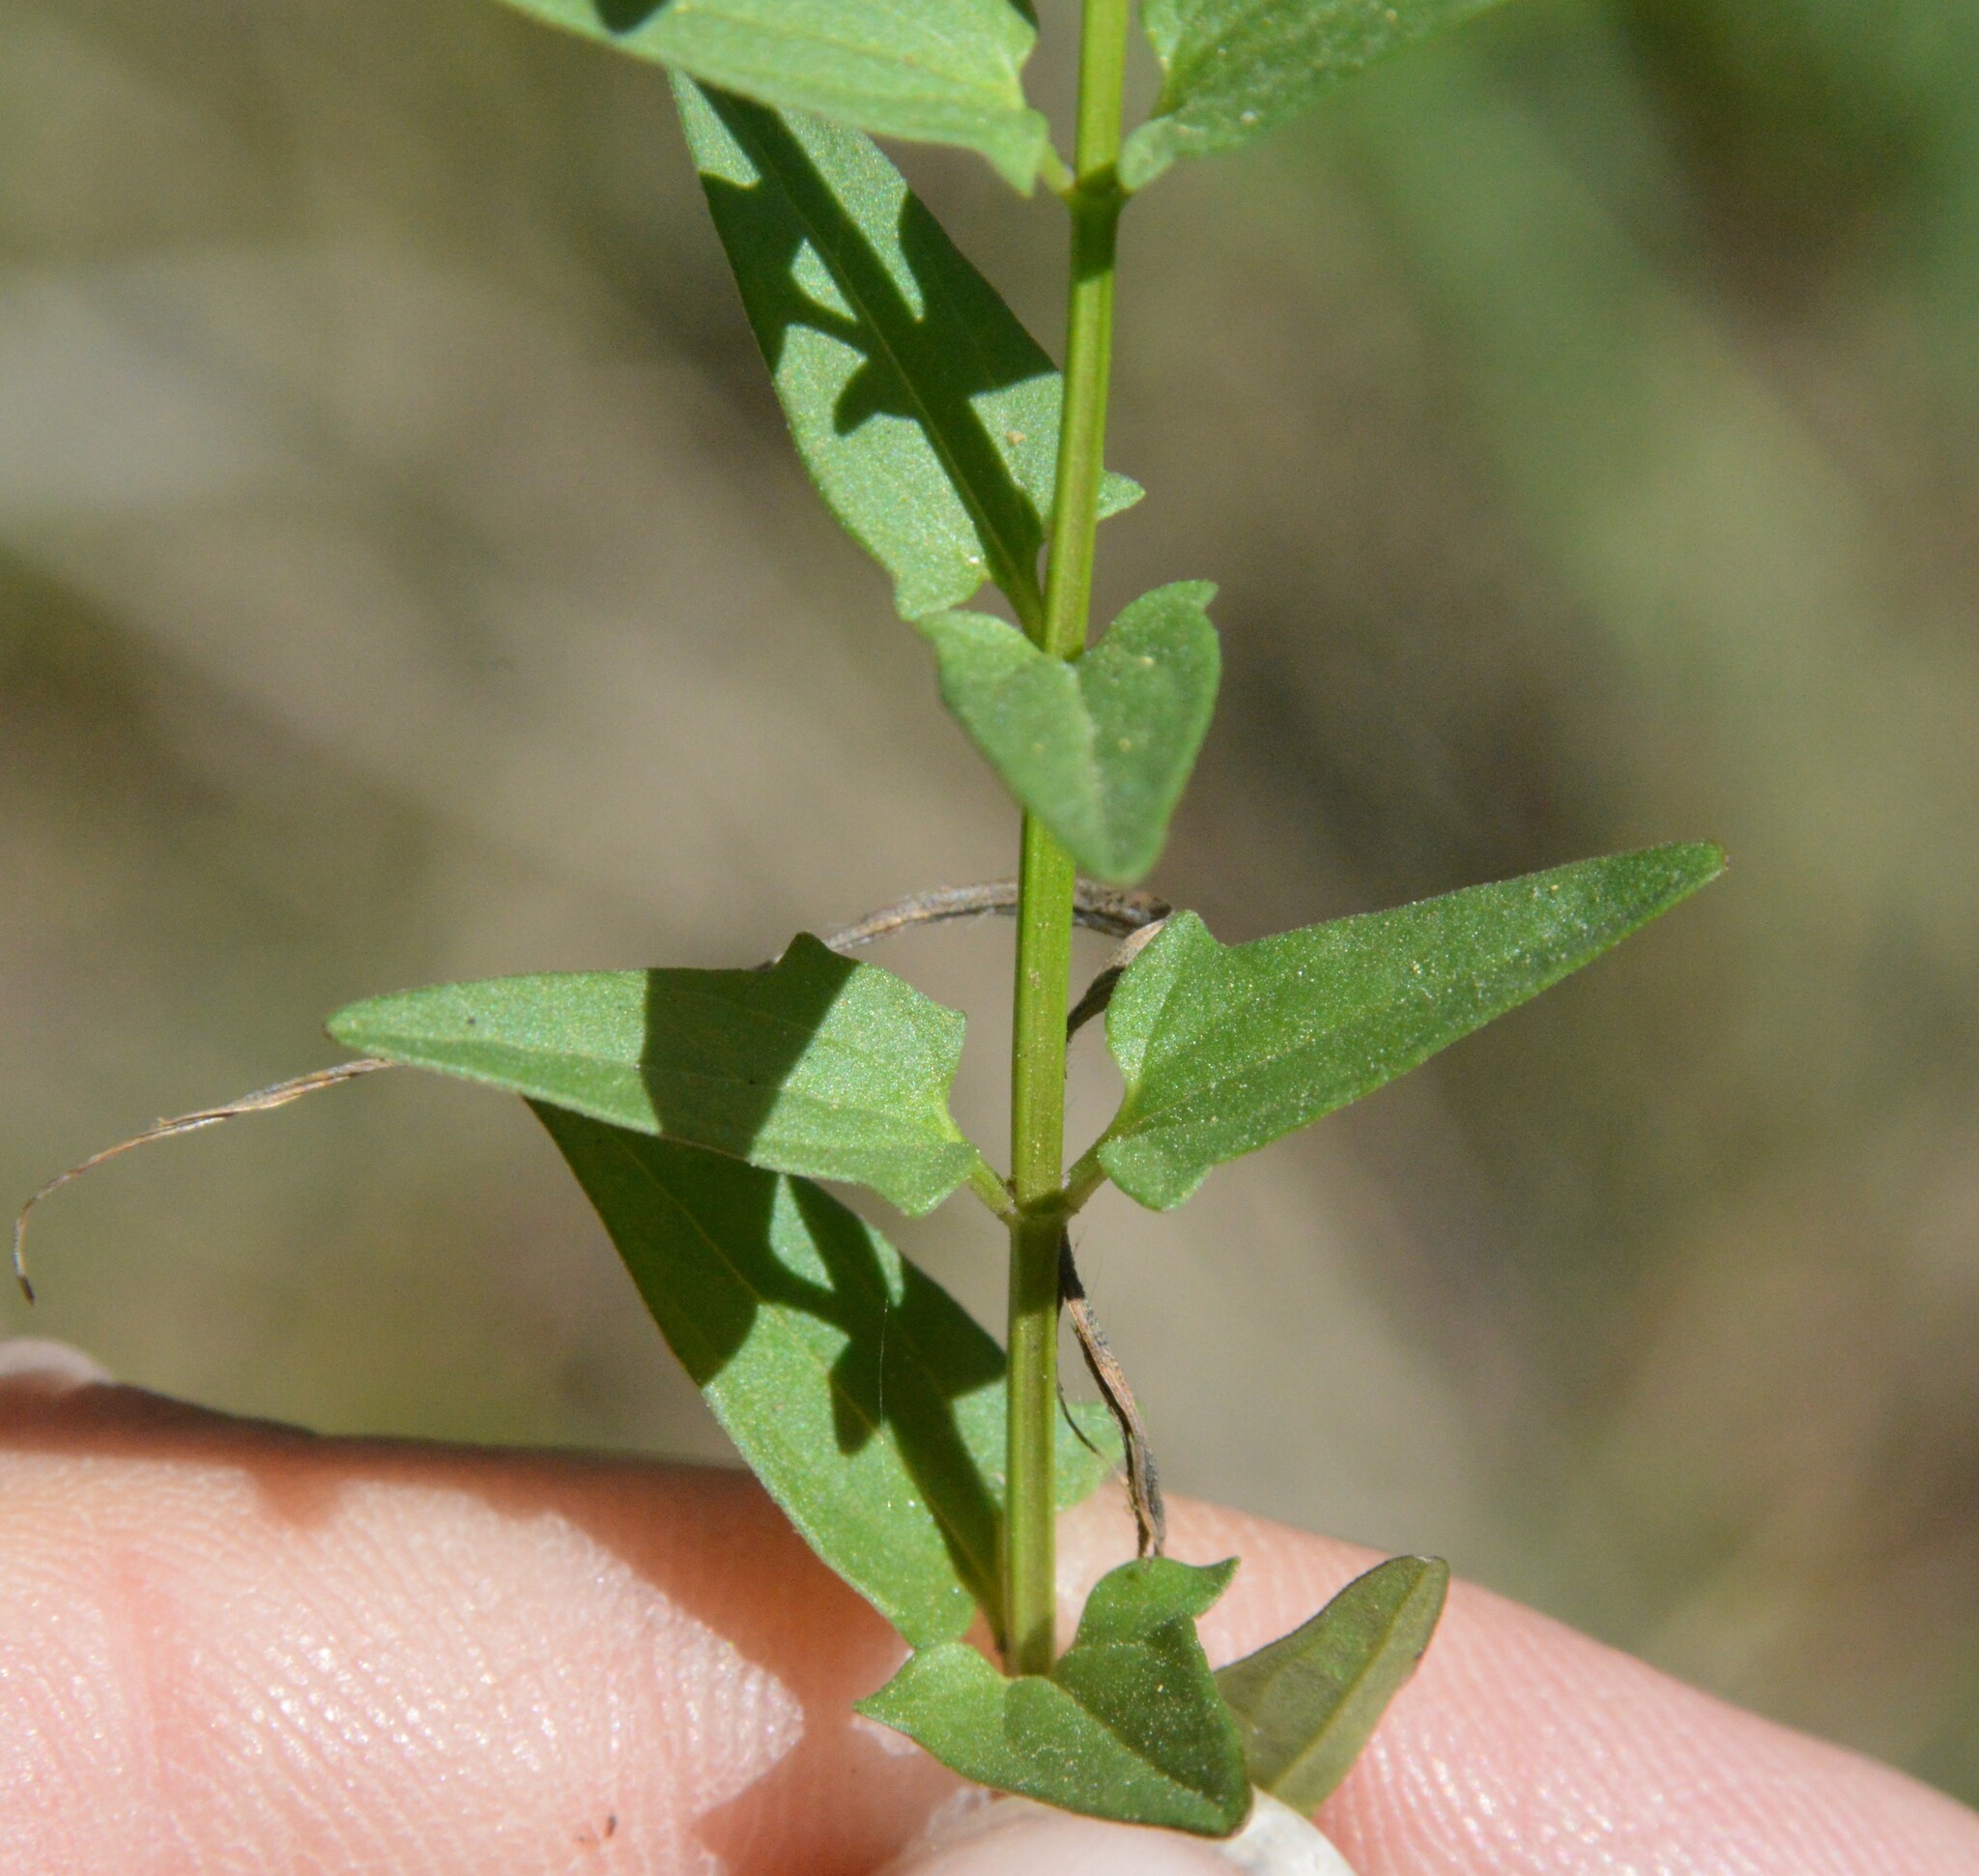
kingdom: Plantae
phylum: Tracheophyta
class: Magnoliopsida
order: Lamiales
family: Lamiaceae
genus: Scutellaria
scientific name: Scutellaria racemosa
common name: South american skullcap
